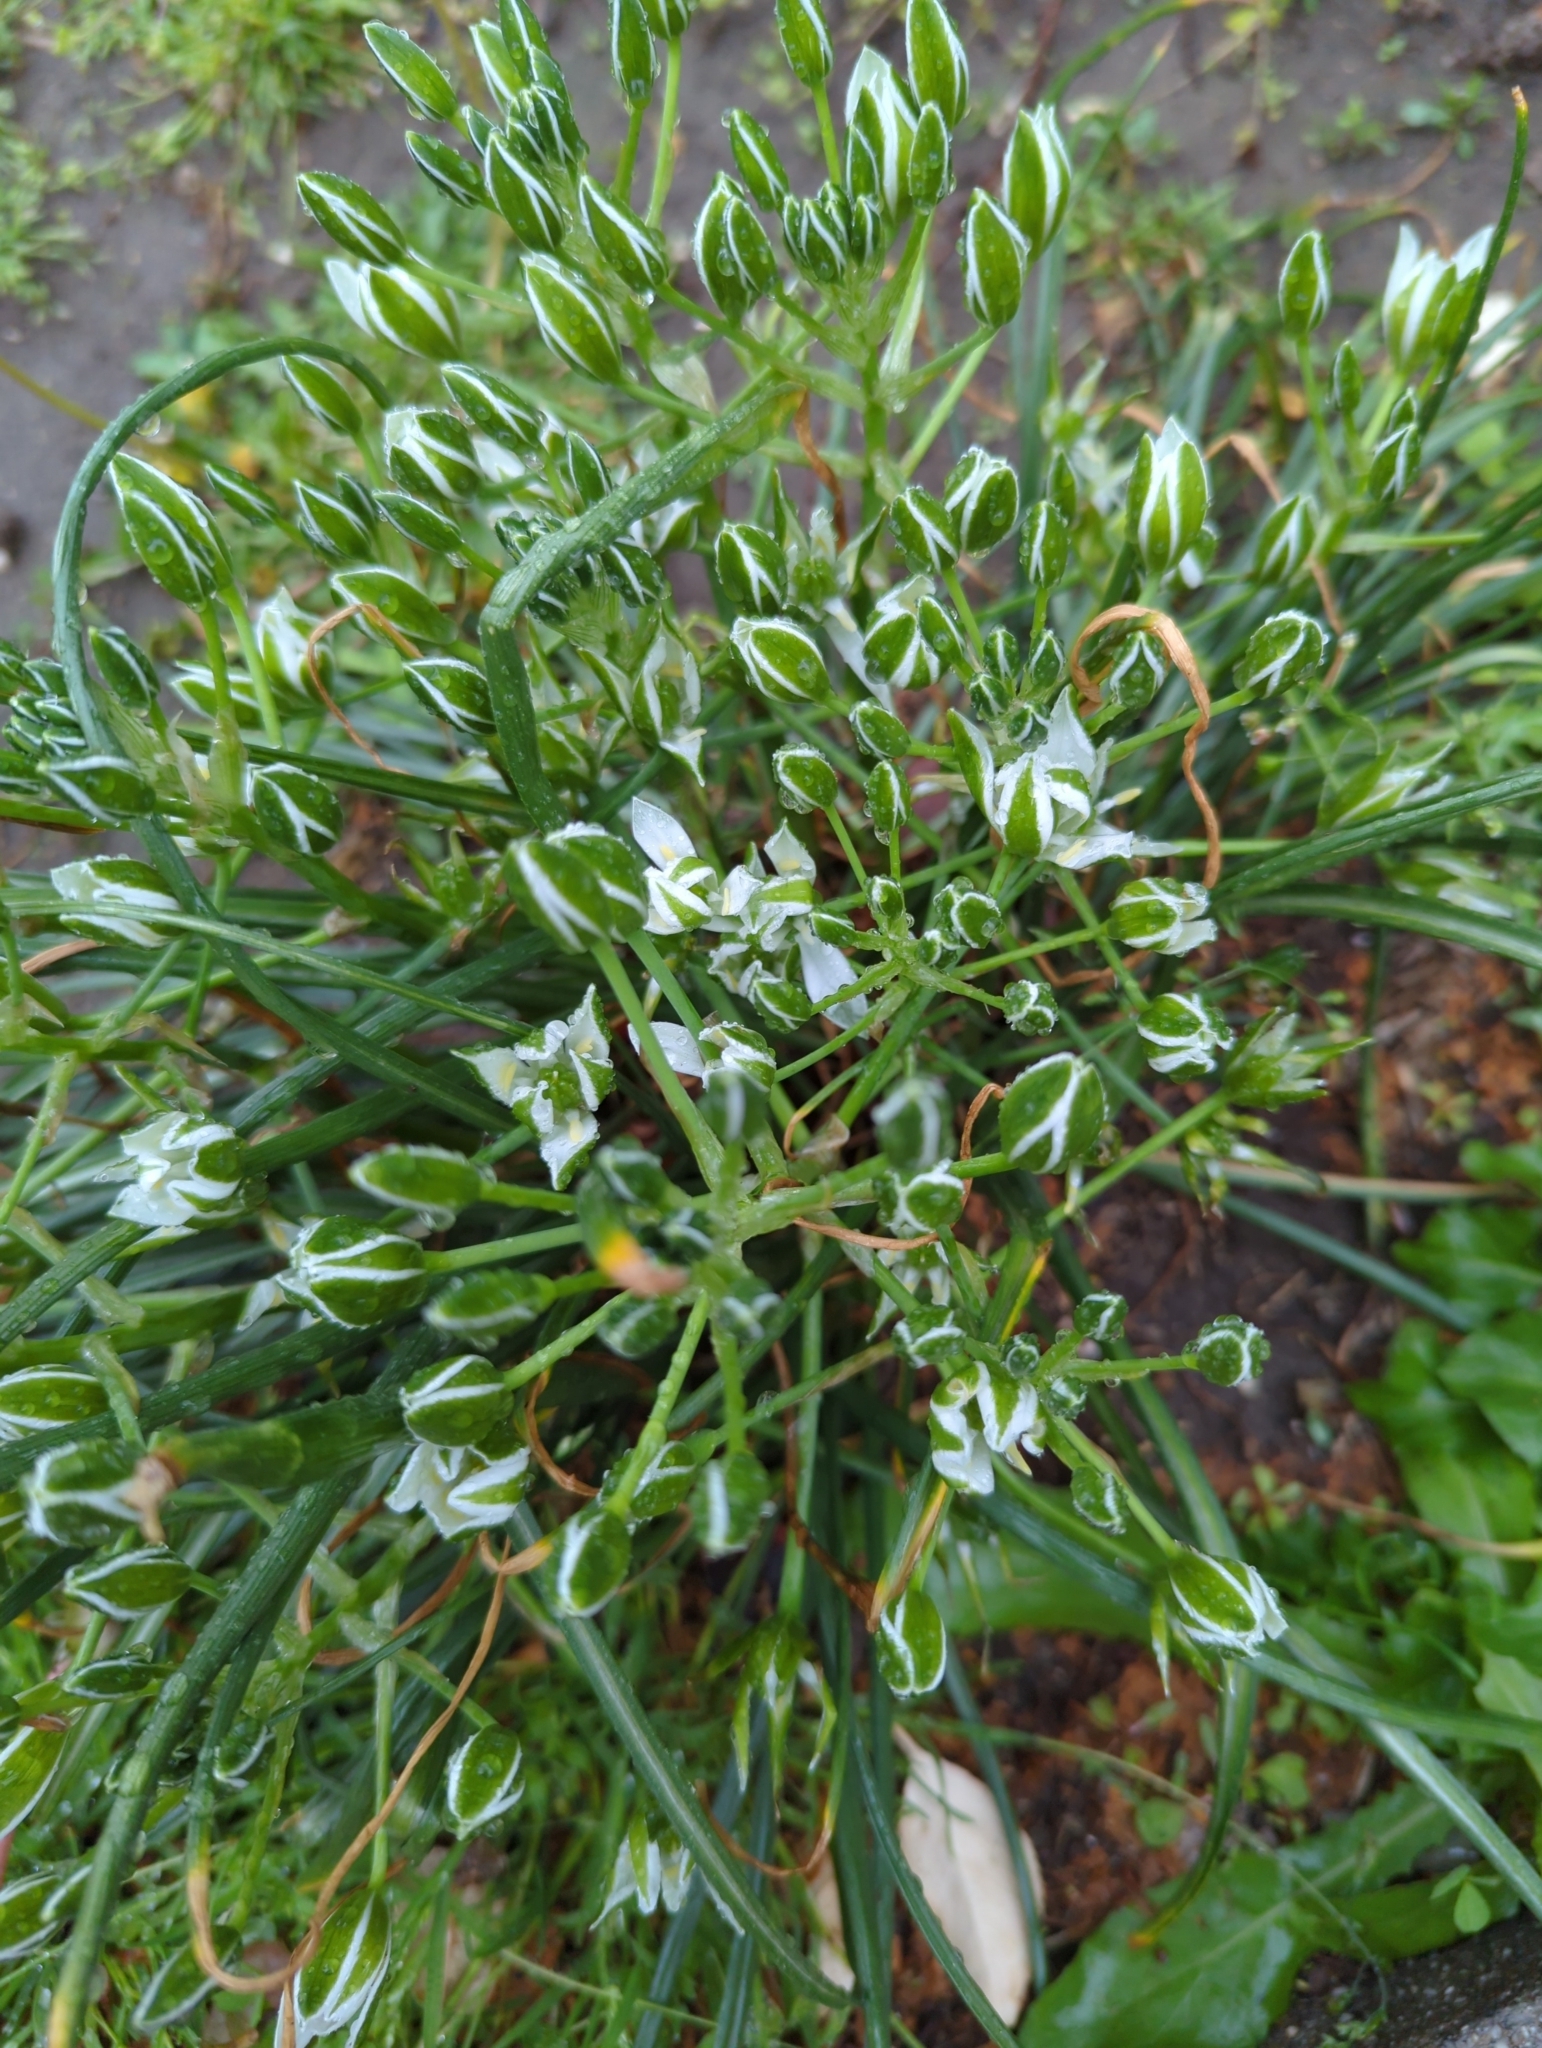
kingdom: Plantae
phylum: Tracheophyta
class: Liliopsida
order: Asparagales
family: Asparagaceae
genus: Ornithogalum
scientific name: Ornithogalum umbellatum
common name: Garden star-of-bethlehem
